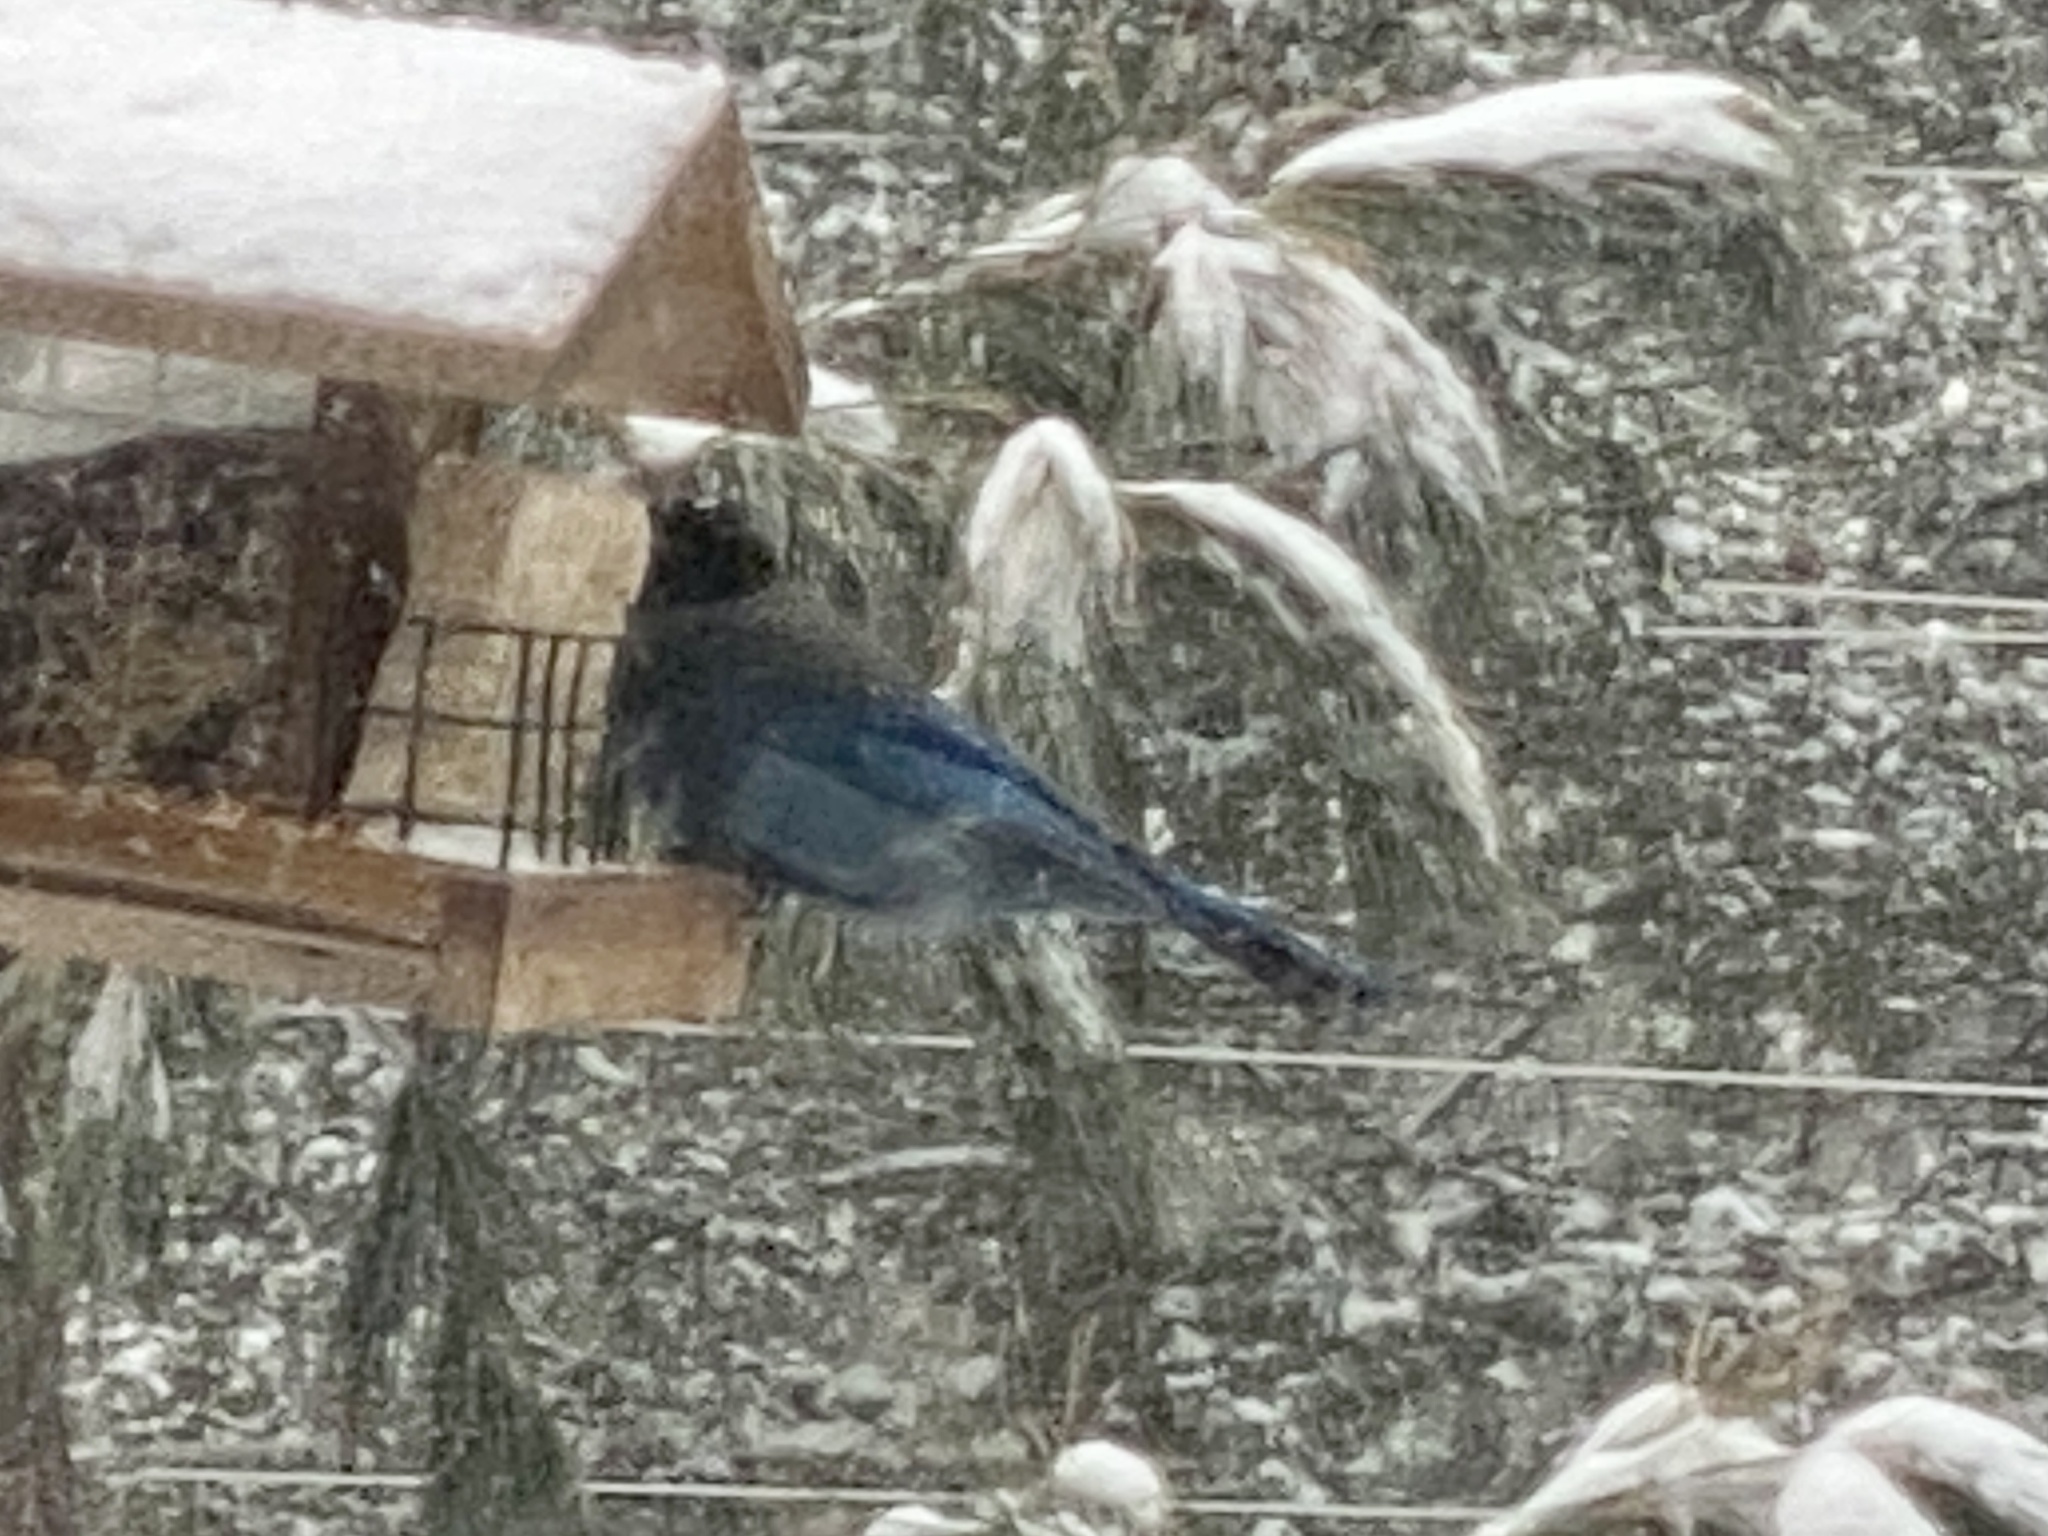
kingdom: Animalia
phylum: Chordata
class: Aves
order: Passeriformes
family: Corvidae
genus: Cyanocitta
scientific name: Cyanocitta stelleri
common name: Steller's jay
